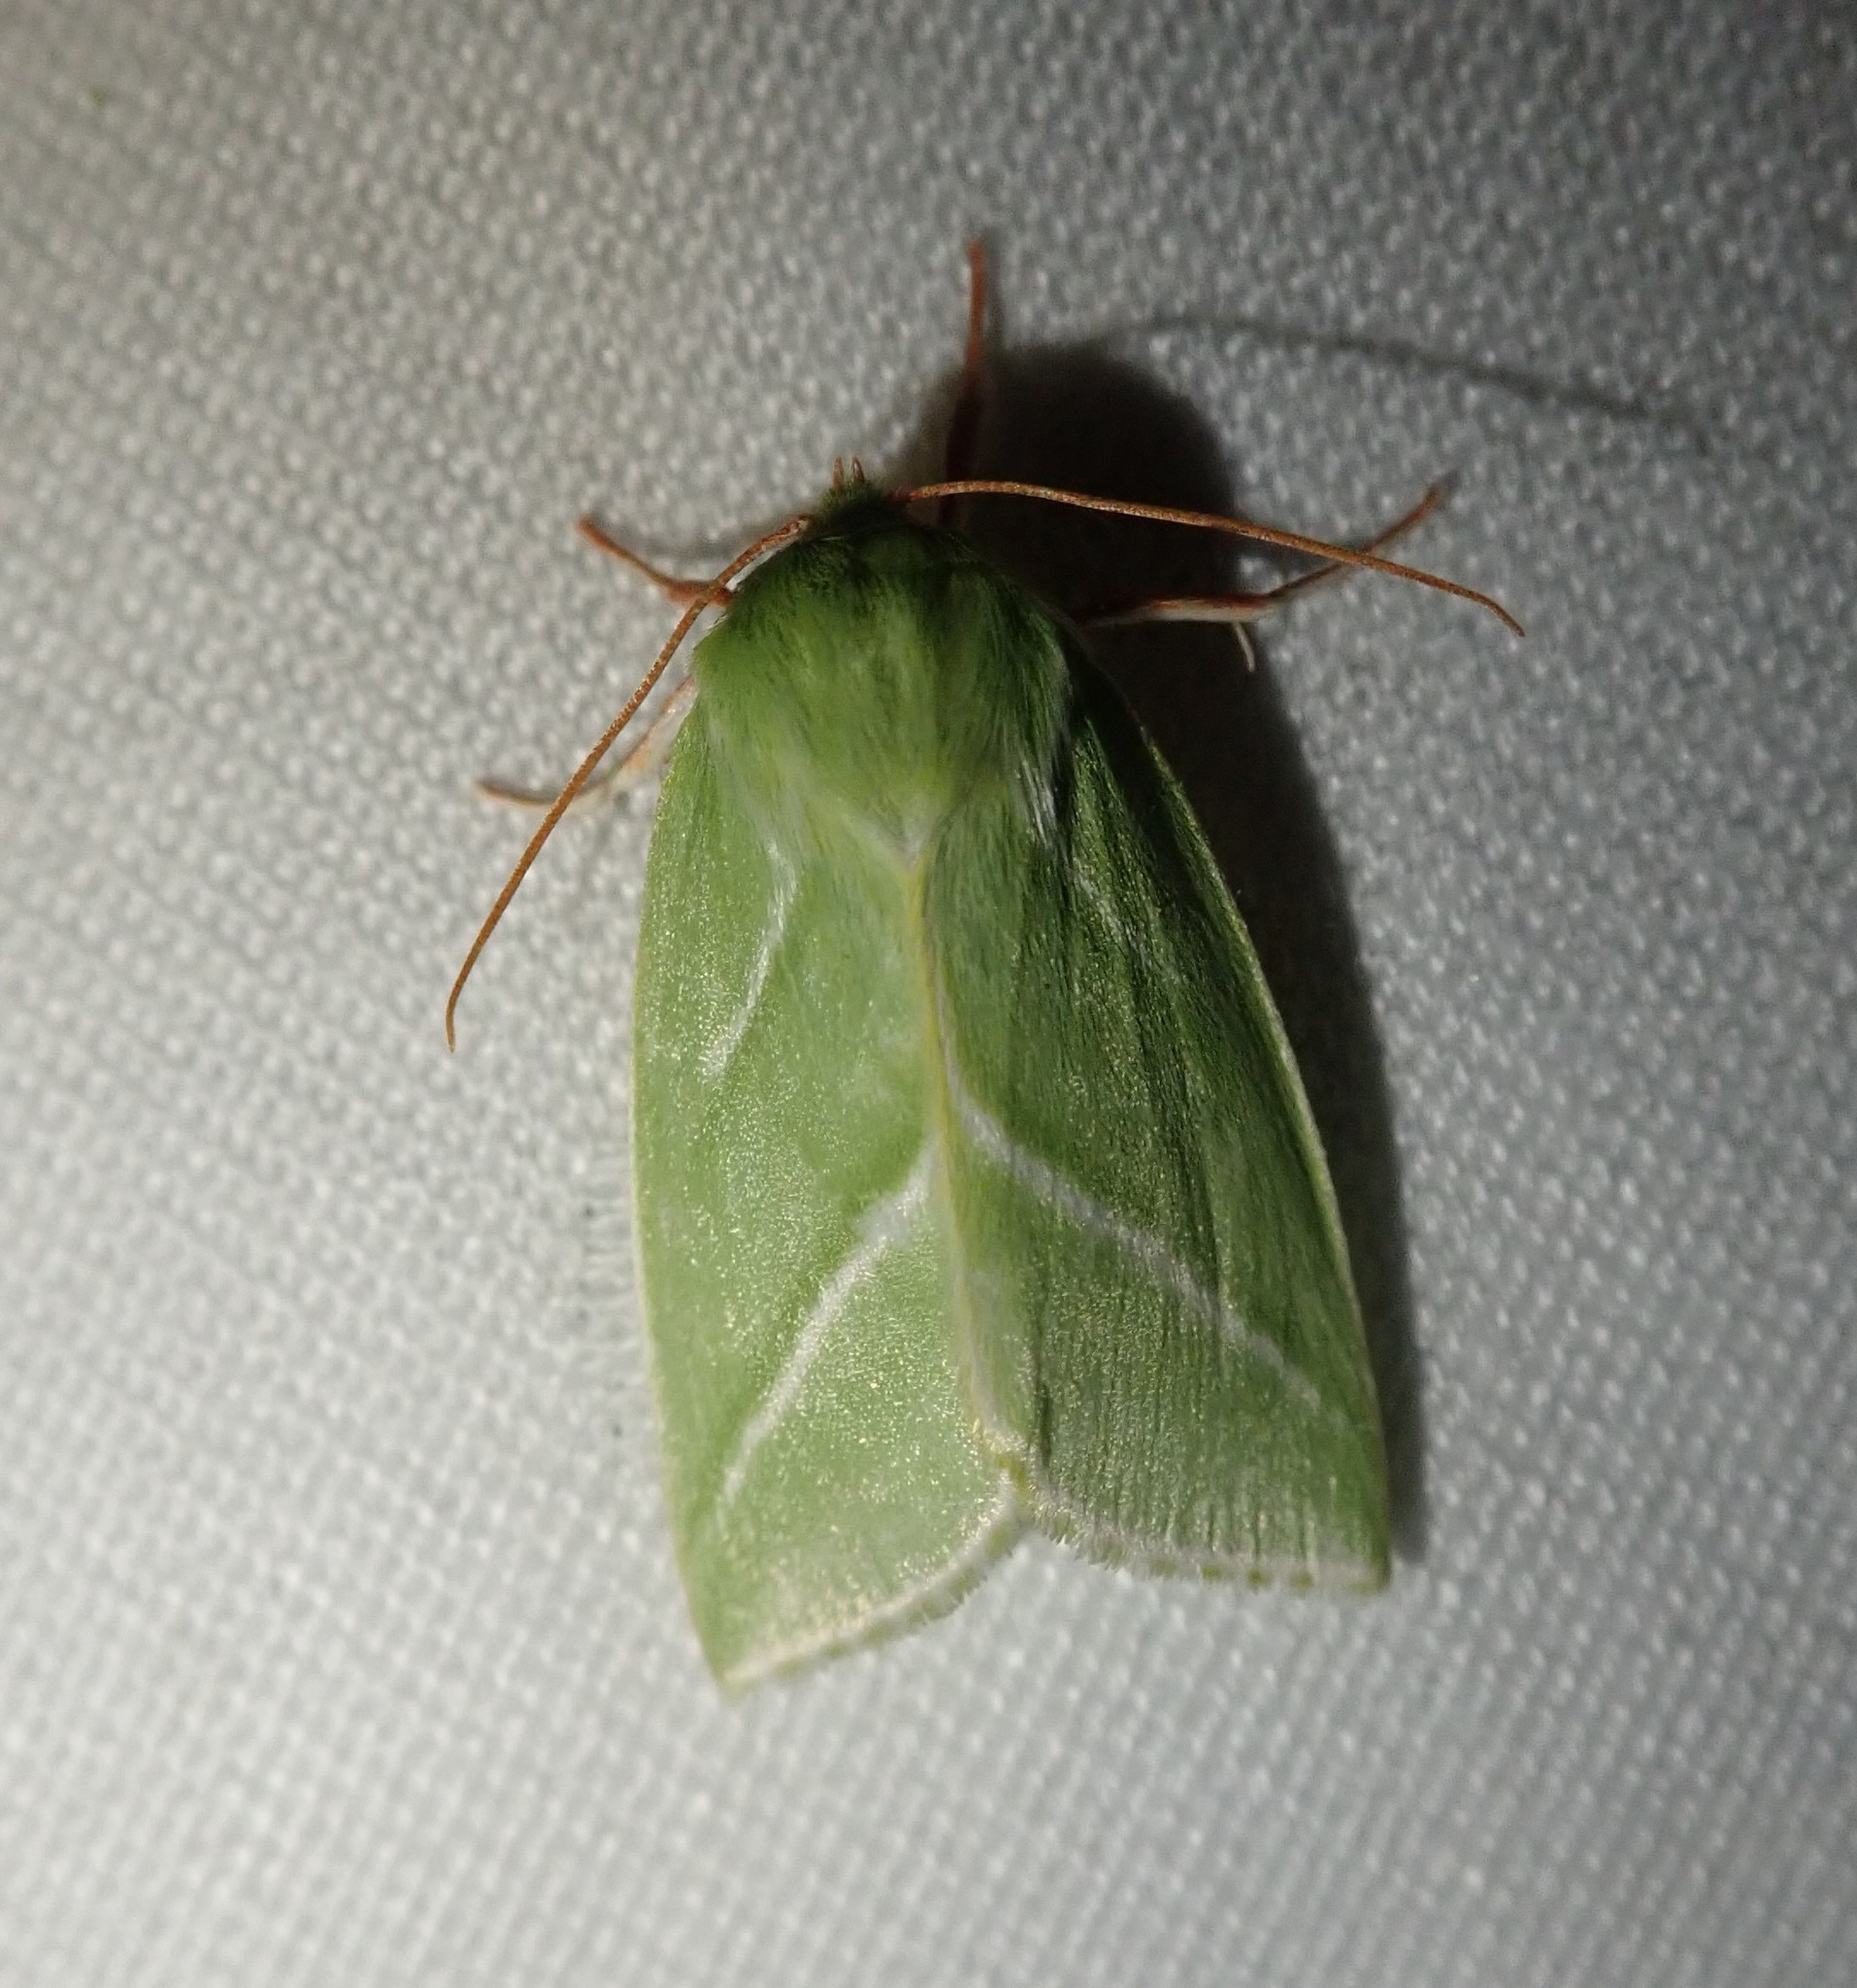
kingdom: Animalia
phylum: Arthropoda
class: Insecta
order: Lepidoptera
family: Nolidae
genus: Pseudoips
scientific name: Pseudoips prasinana
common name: Green silver-lines
